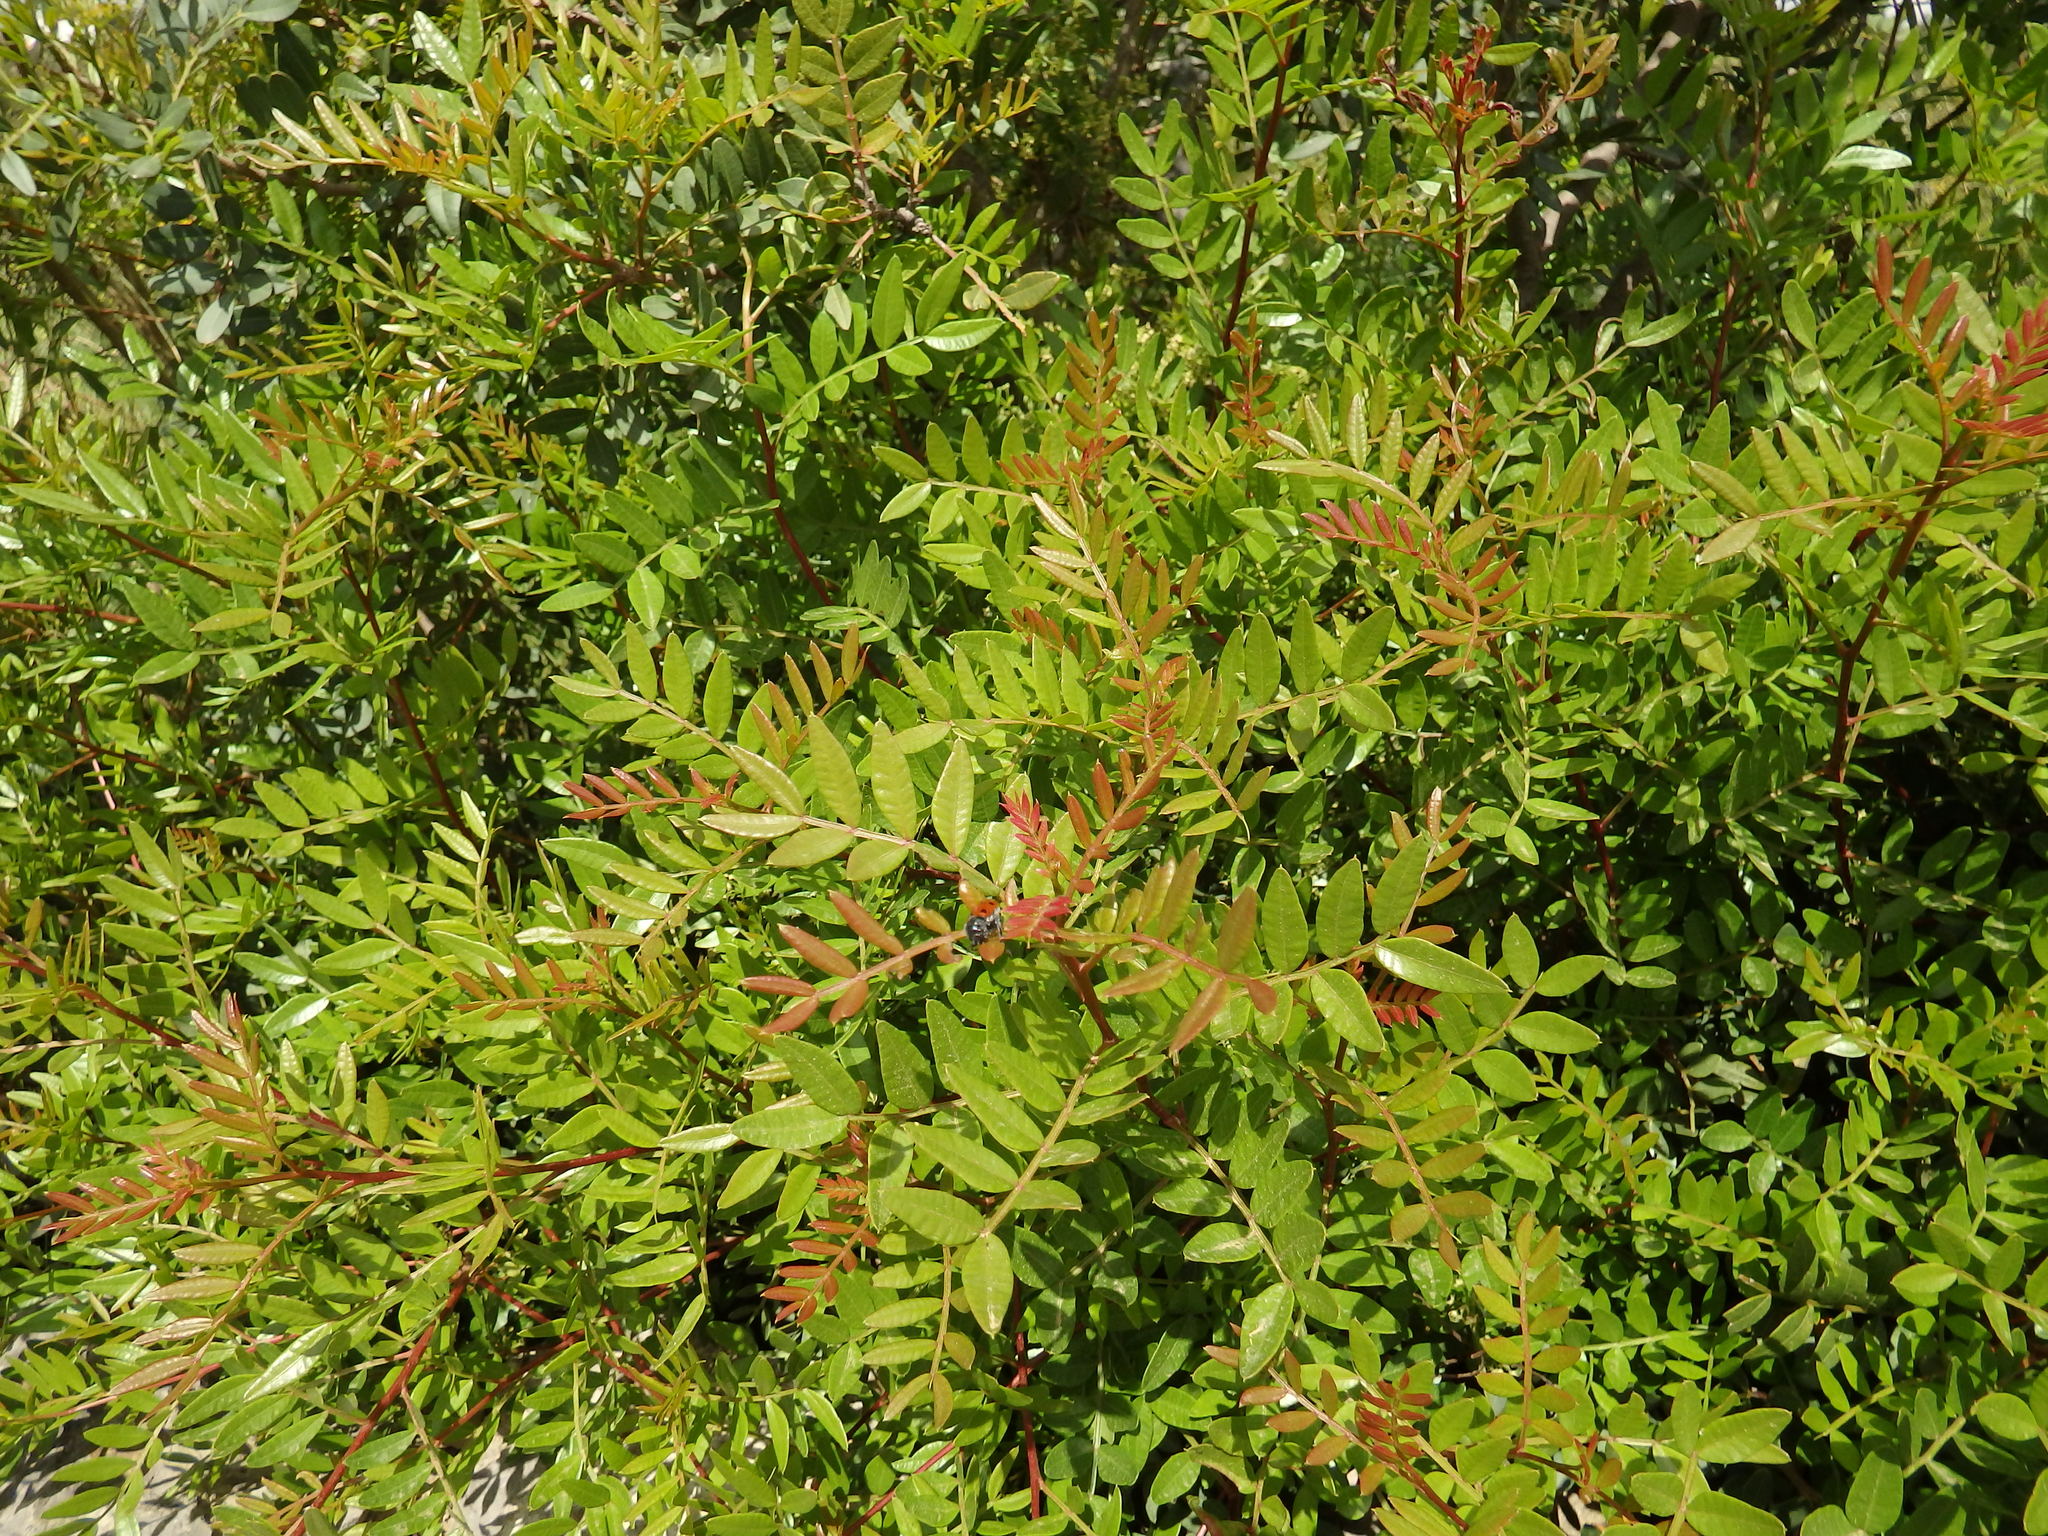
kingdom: Plantae
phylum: Tracheophyta
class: Magnoliopsida
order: Sapindales
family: Anacardiaceae
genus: Pistacia
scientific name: Pistacia lentiscus
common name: Lentisk
